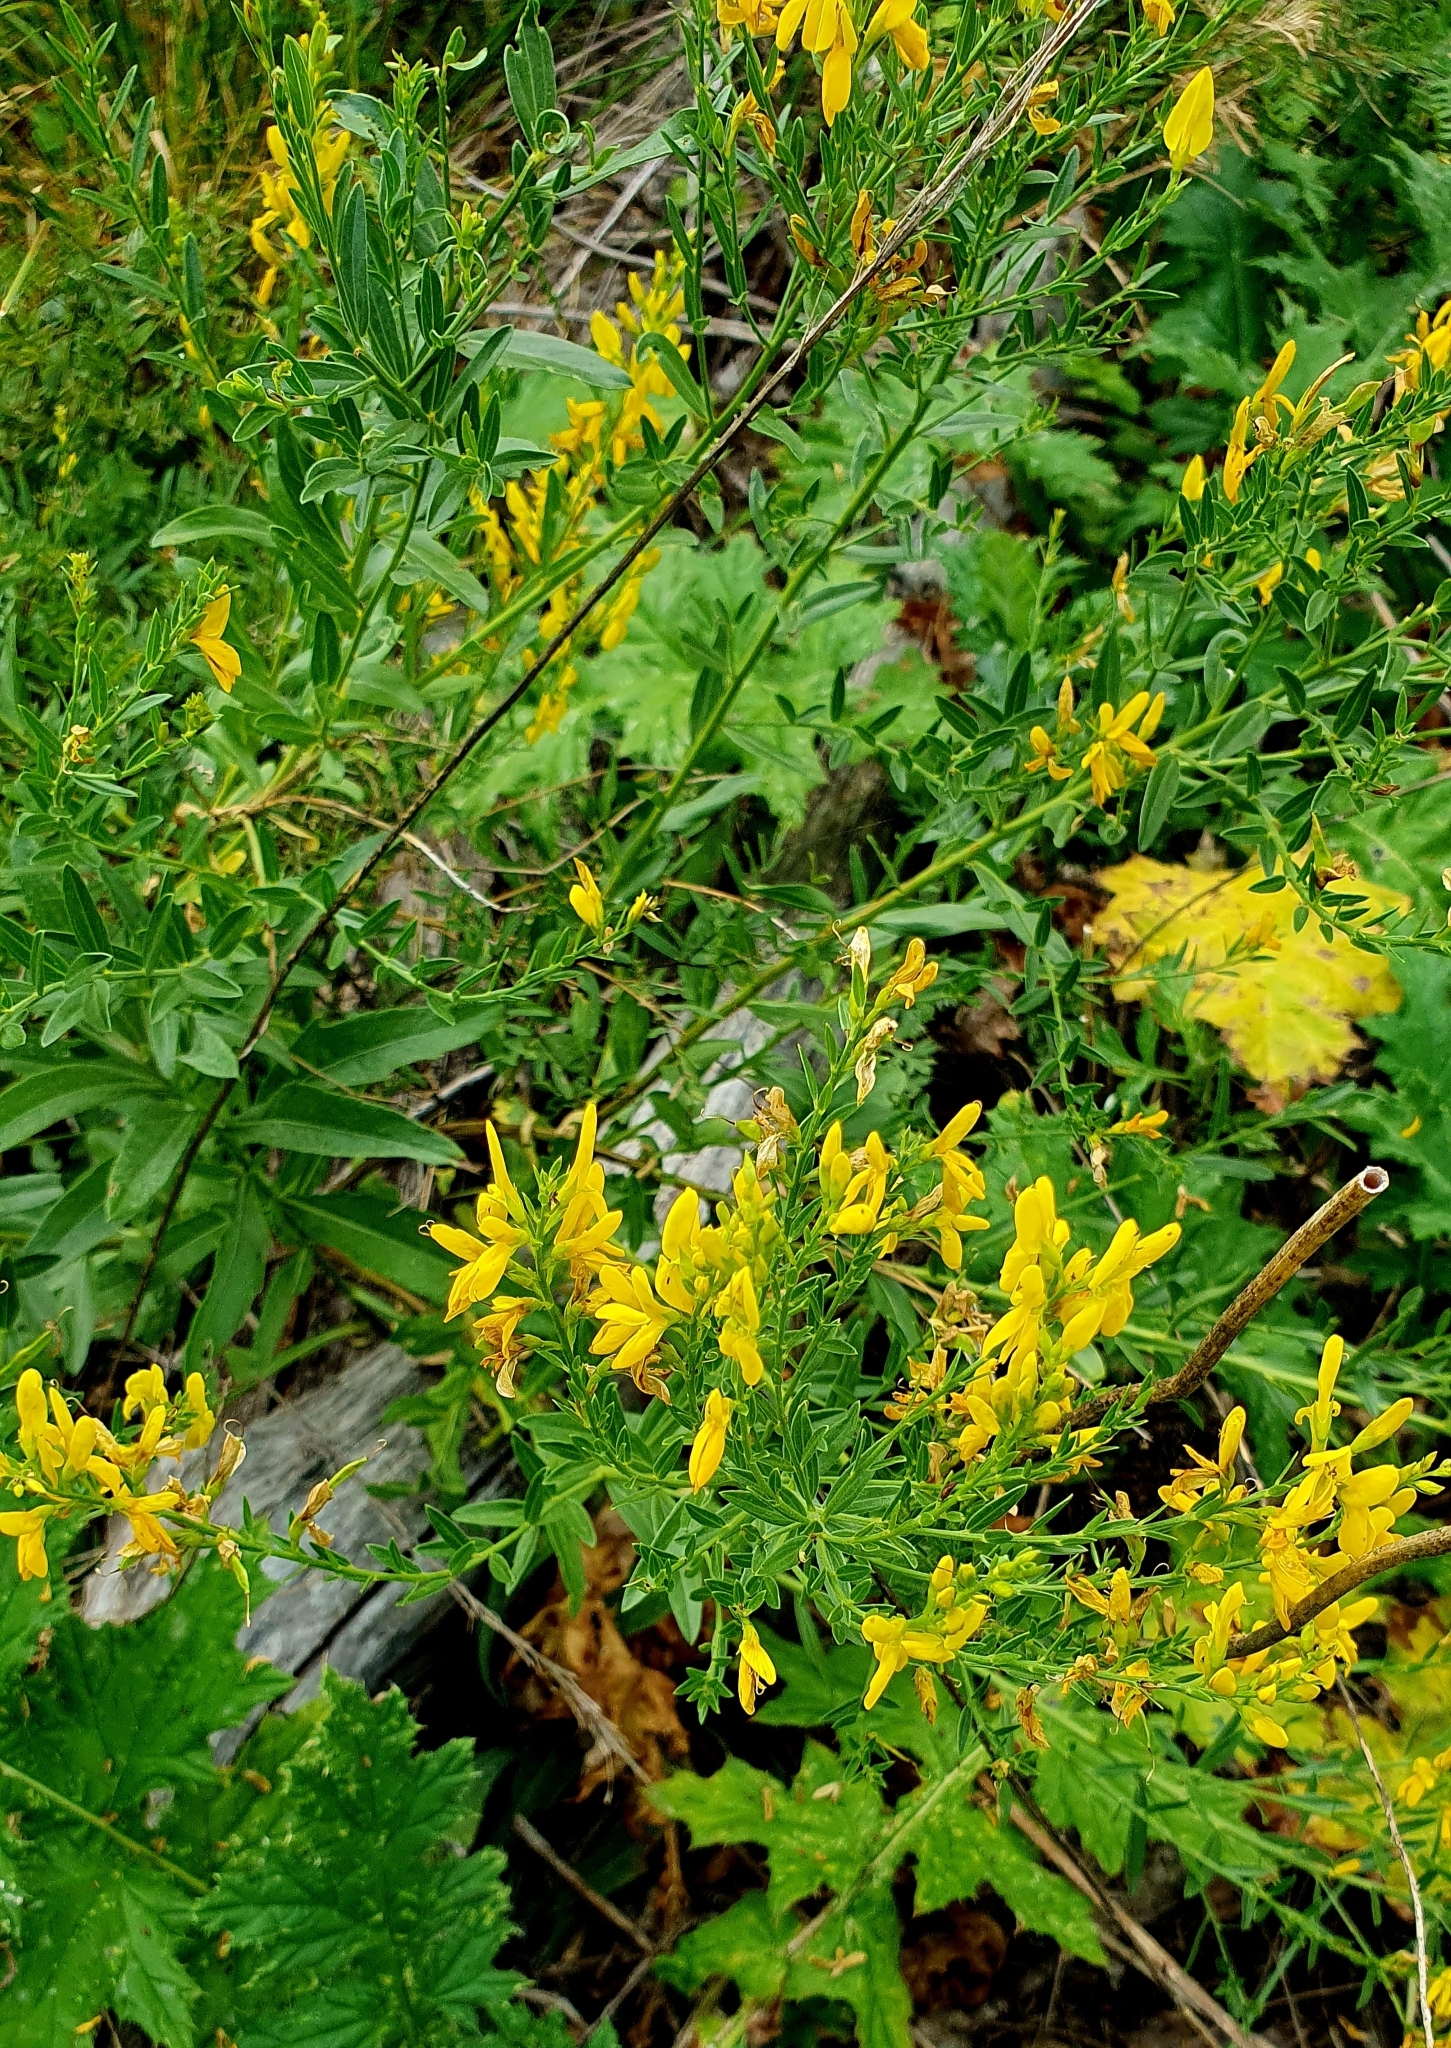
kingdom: Plantae
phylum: Tracheophyta
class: Magnoliopsida
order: Fabales
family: Fabaceae
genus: Genista
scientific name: Genista tinctoria
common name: Dyer's greenweed
